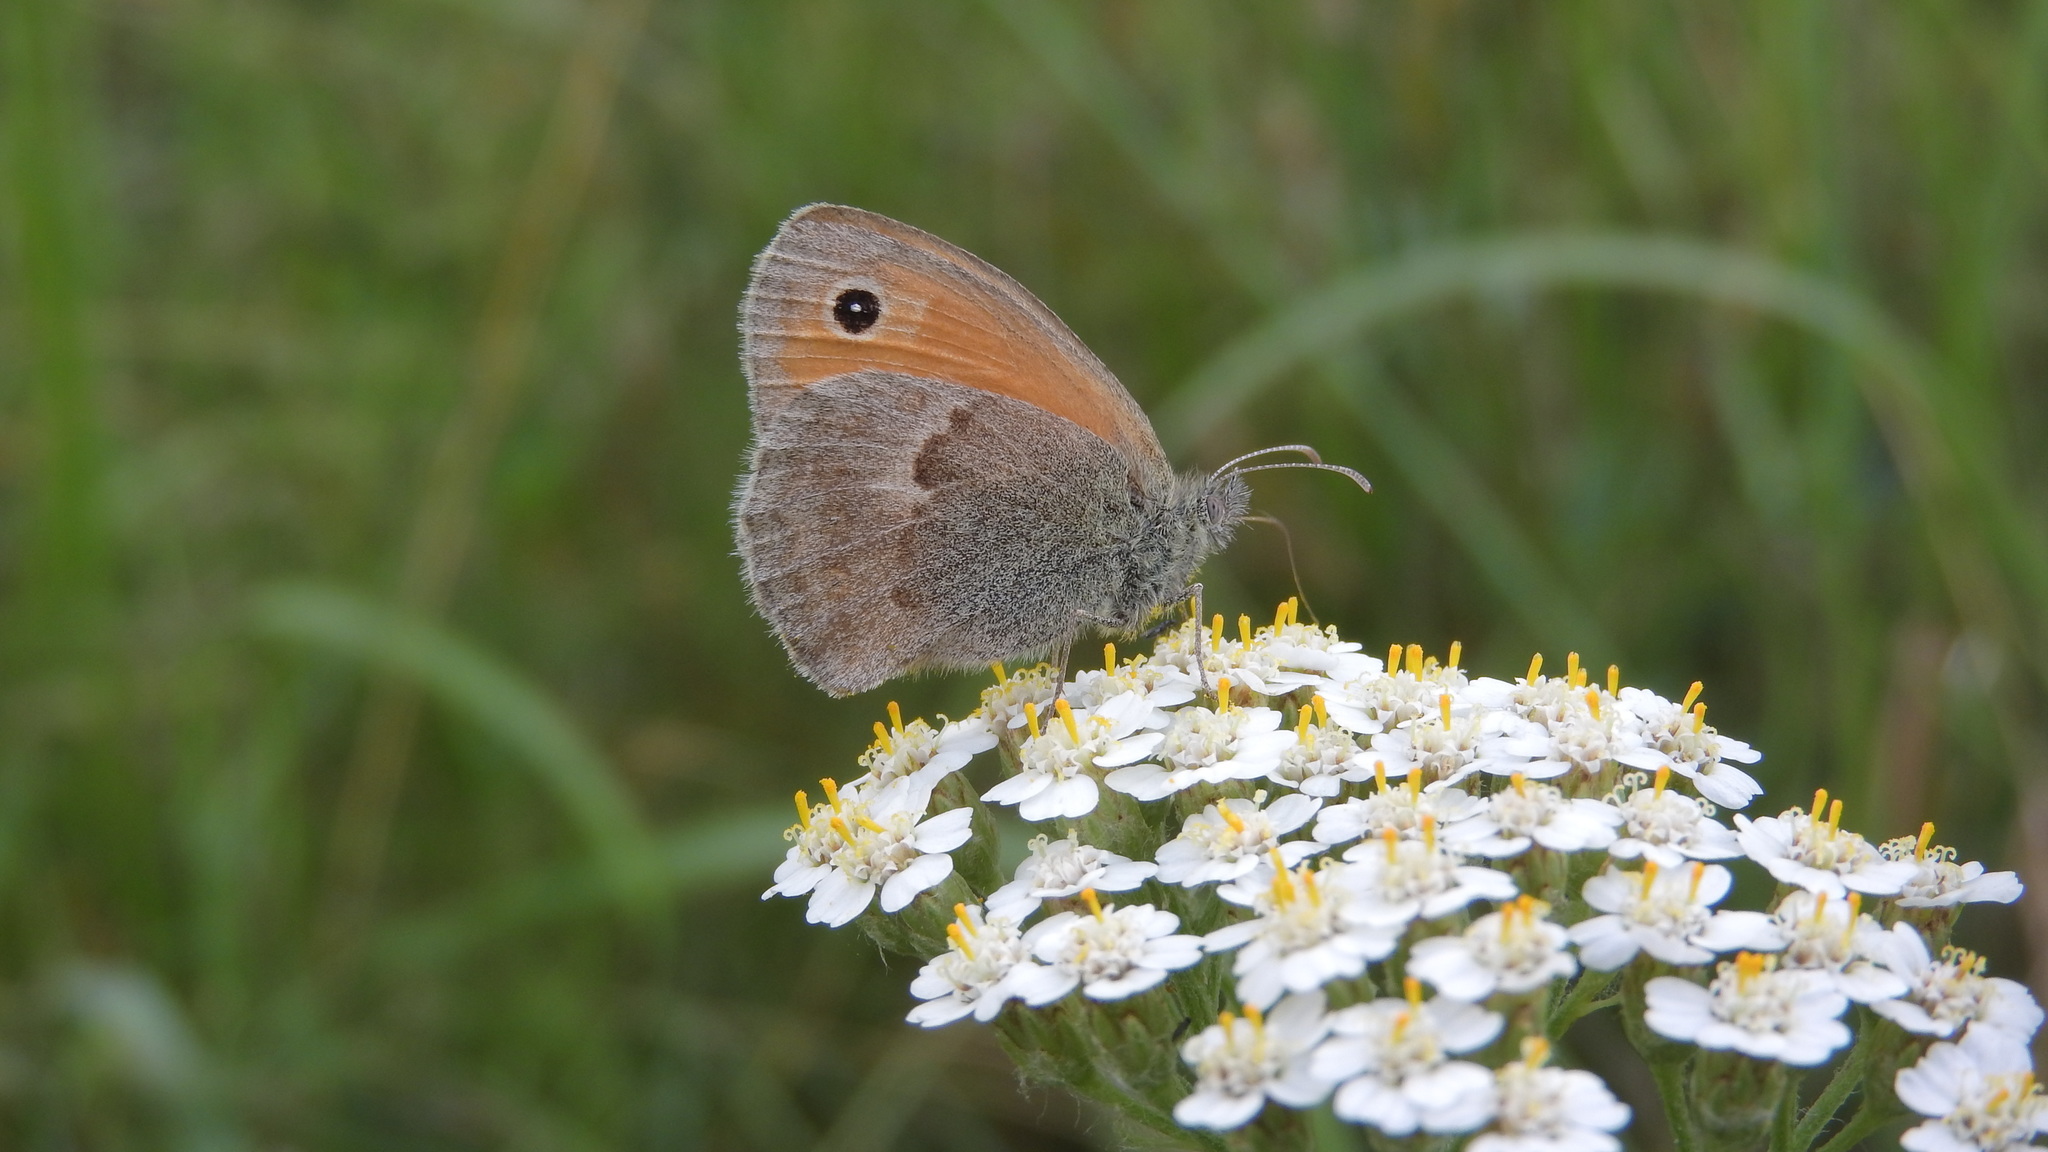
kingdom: Animalia
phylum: Arthropoda
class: Insecta
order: Lepidoptera
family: Nymphalidae
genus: Coenonympha
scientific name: Coenonympha pamphilus
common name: Small heath
